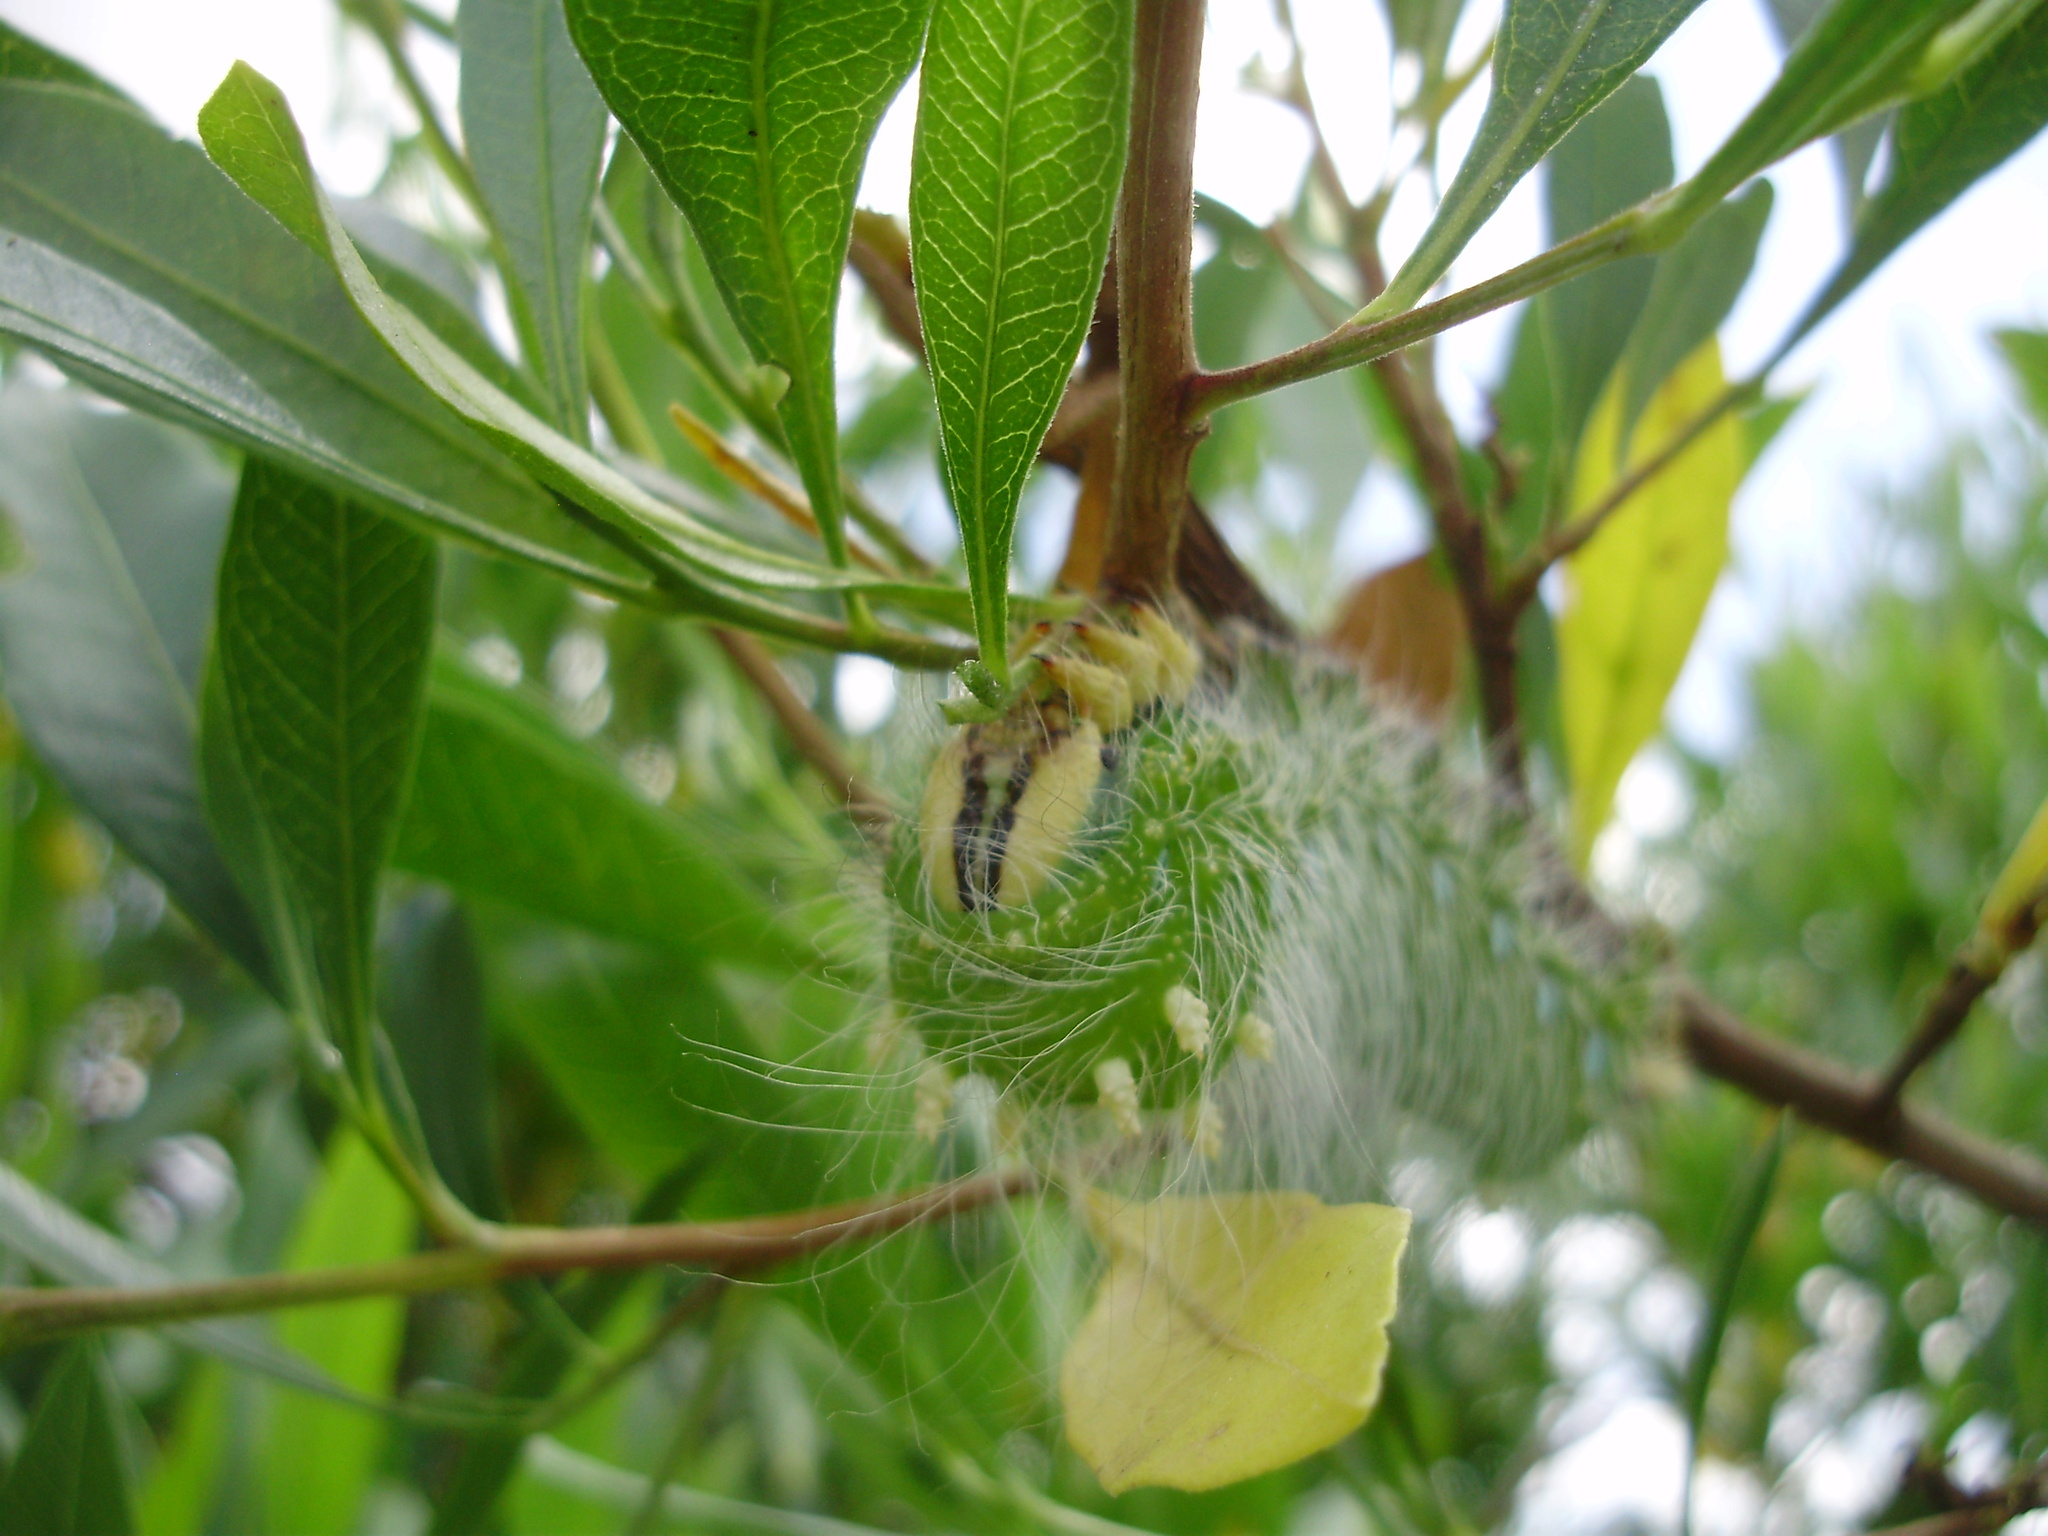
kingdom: Animalia
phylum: Arthropoda
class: Insecta
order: Lepidoptera
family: Saturniidae
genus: Eacles
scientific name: Eacles imperialis
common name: Imperial moth
